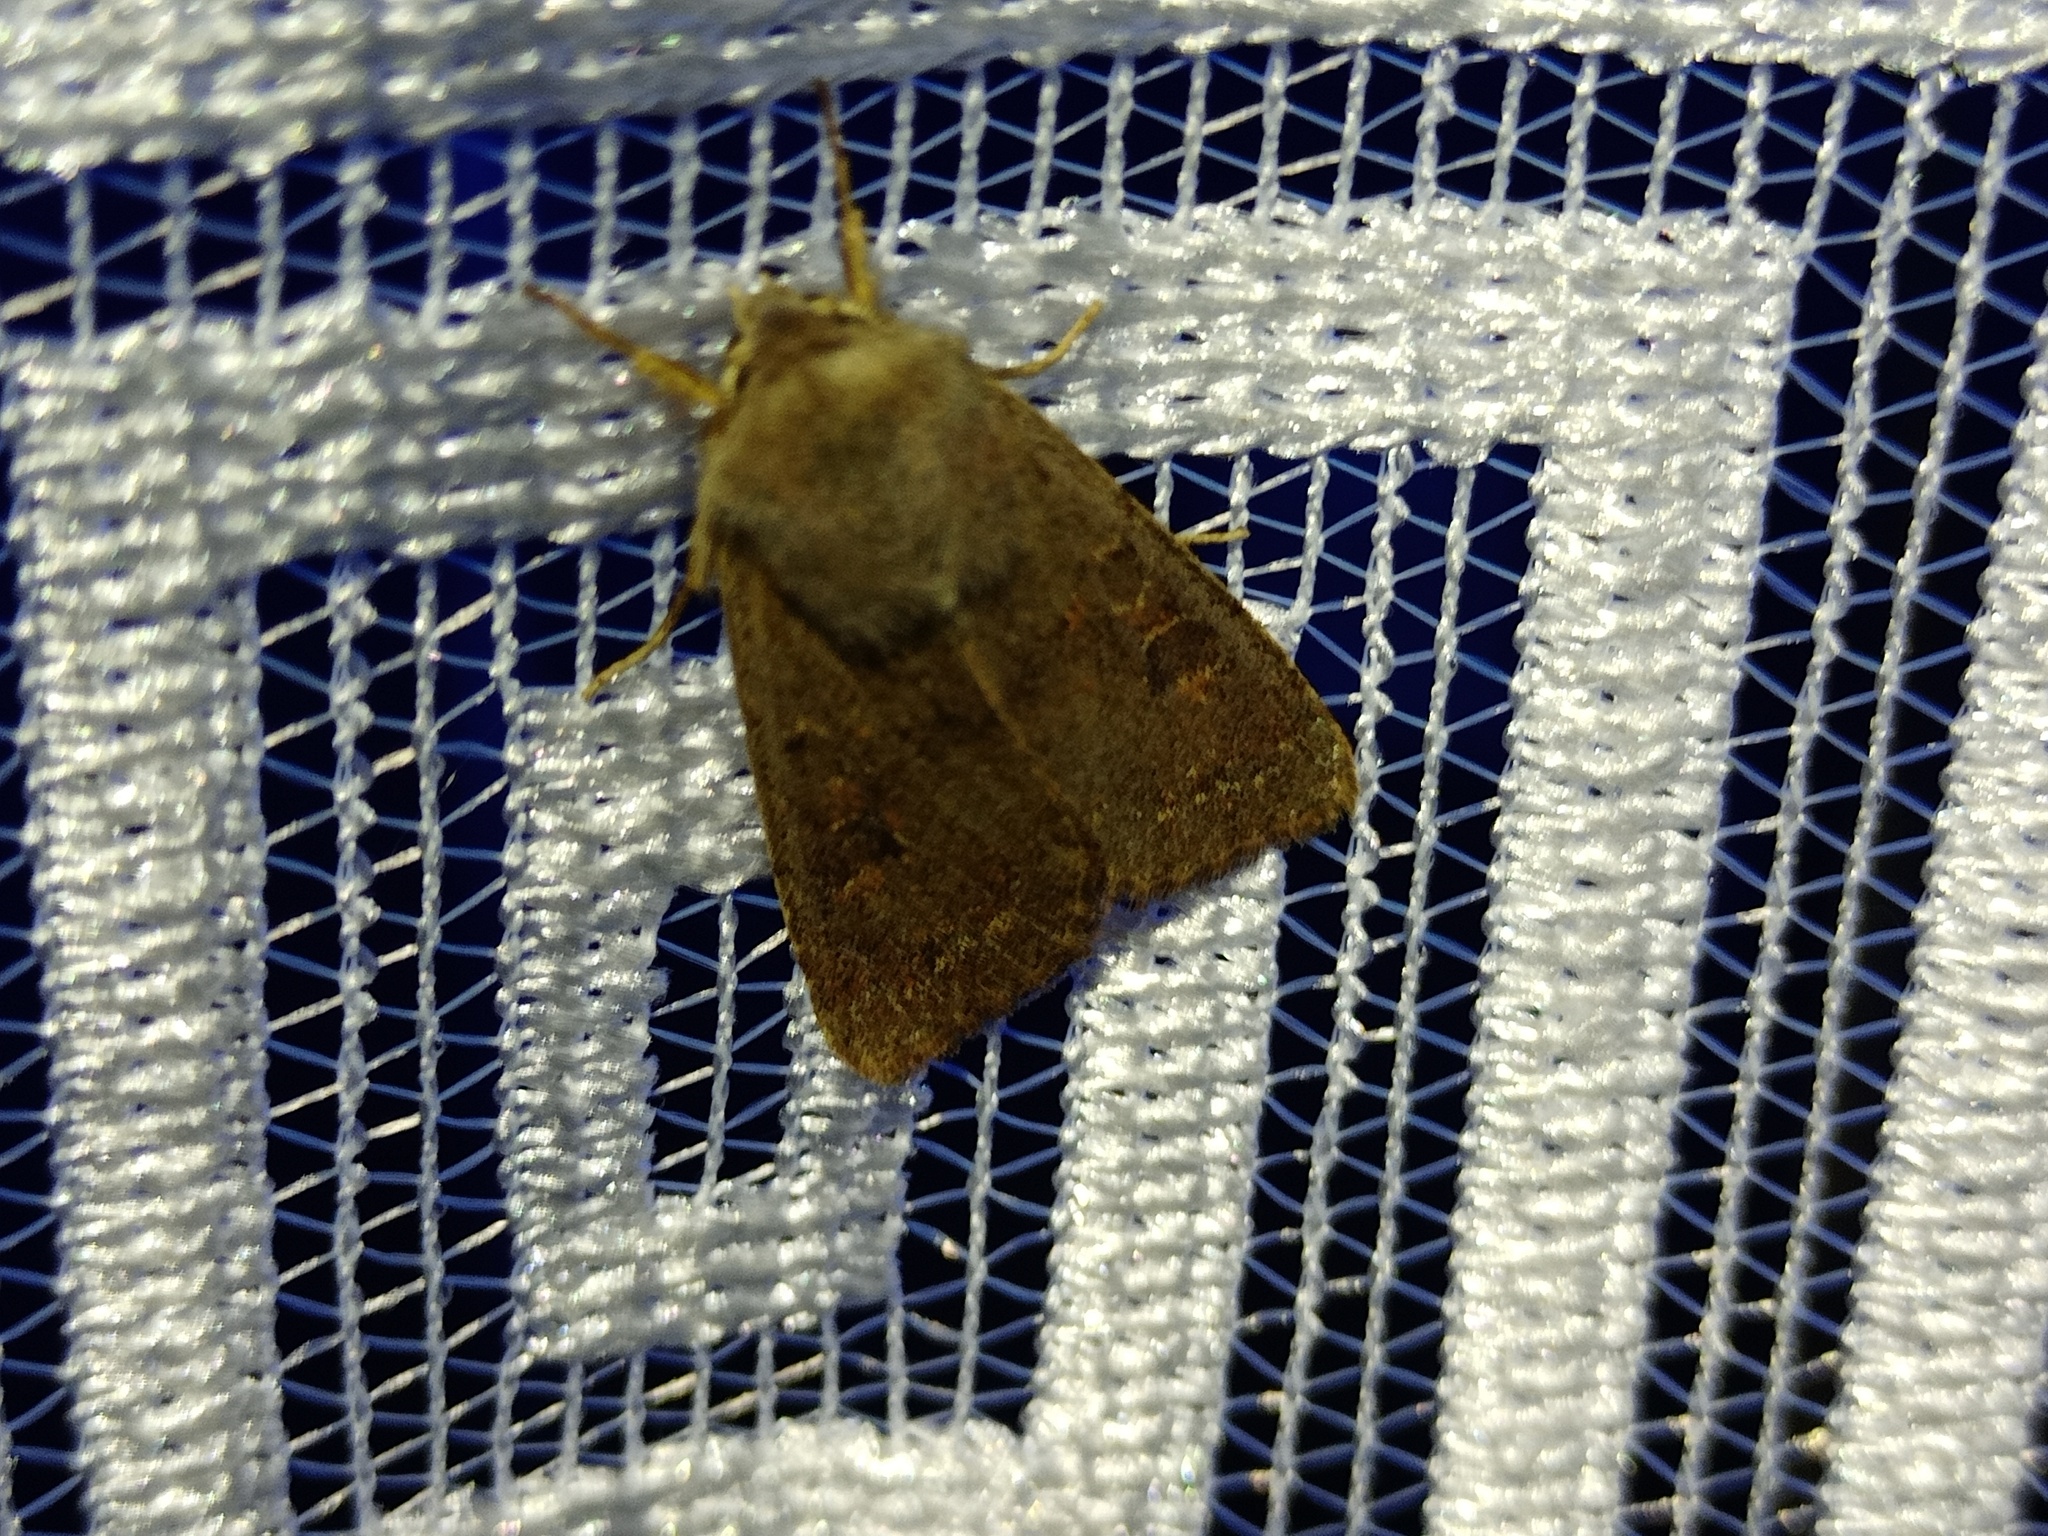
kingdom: Animalia
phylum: Arthropoda
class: Insecta
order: Lepidoptera
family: Noctuidae
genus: Orthosia
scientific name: Orthosia populeti
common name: Lead-coloured drab
